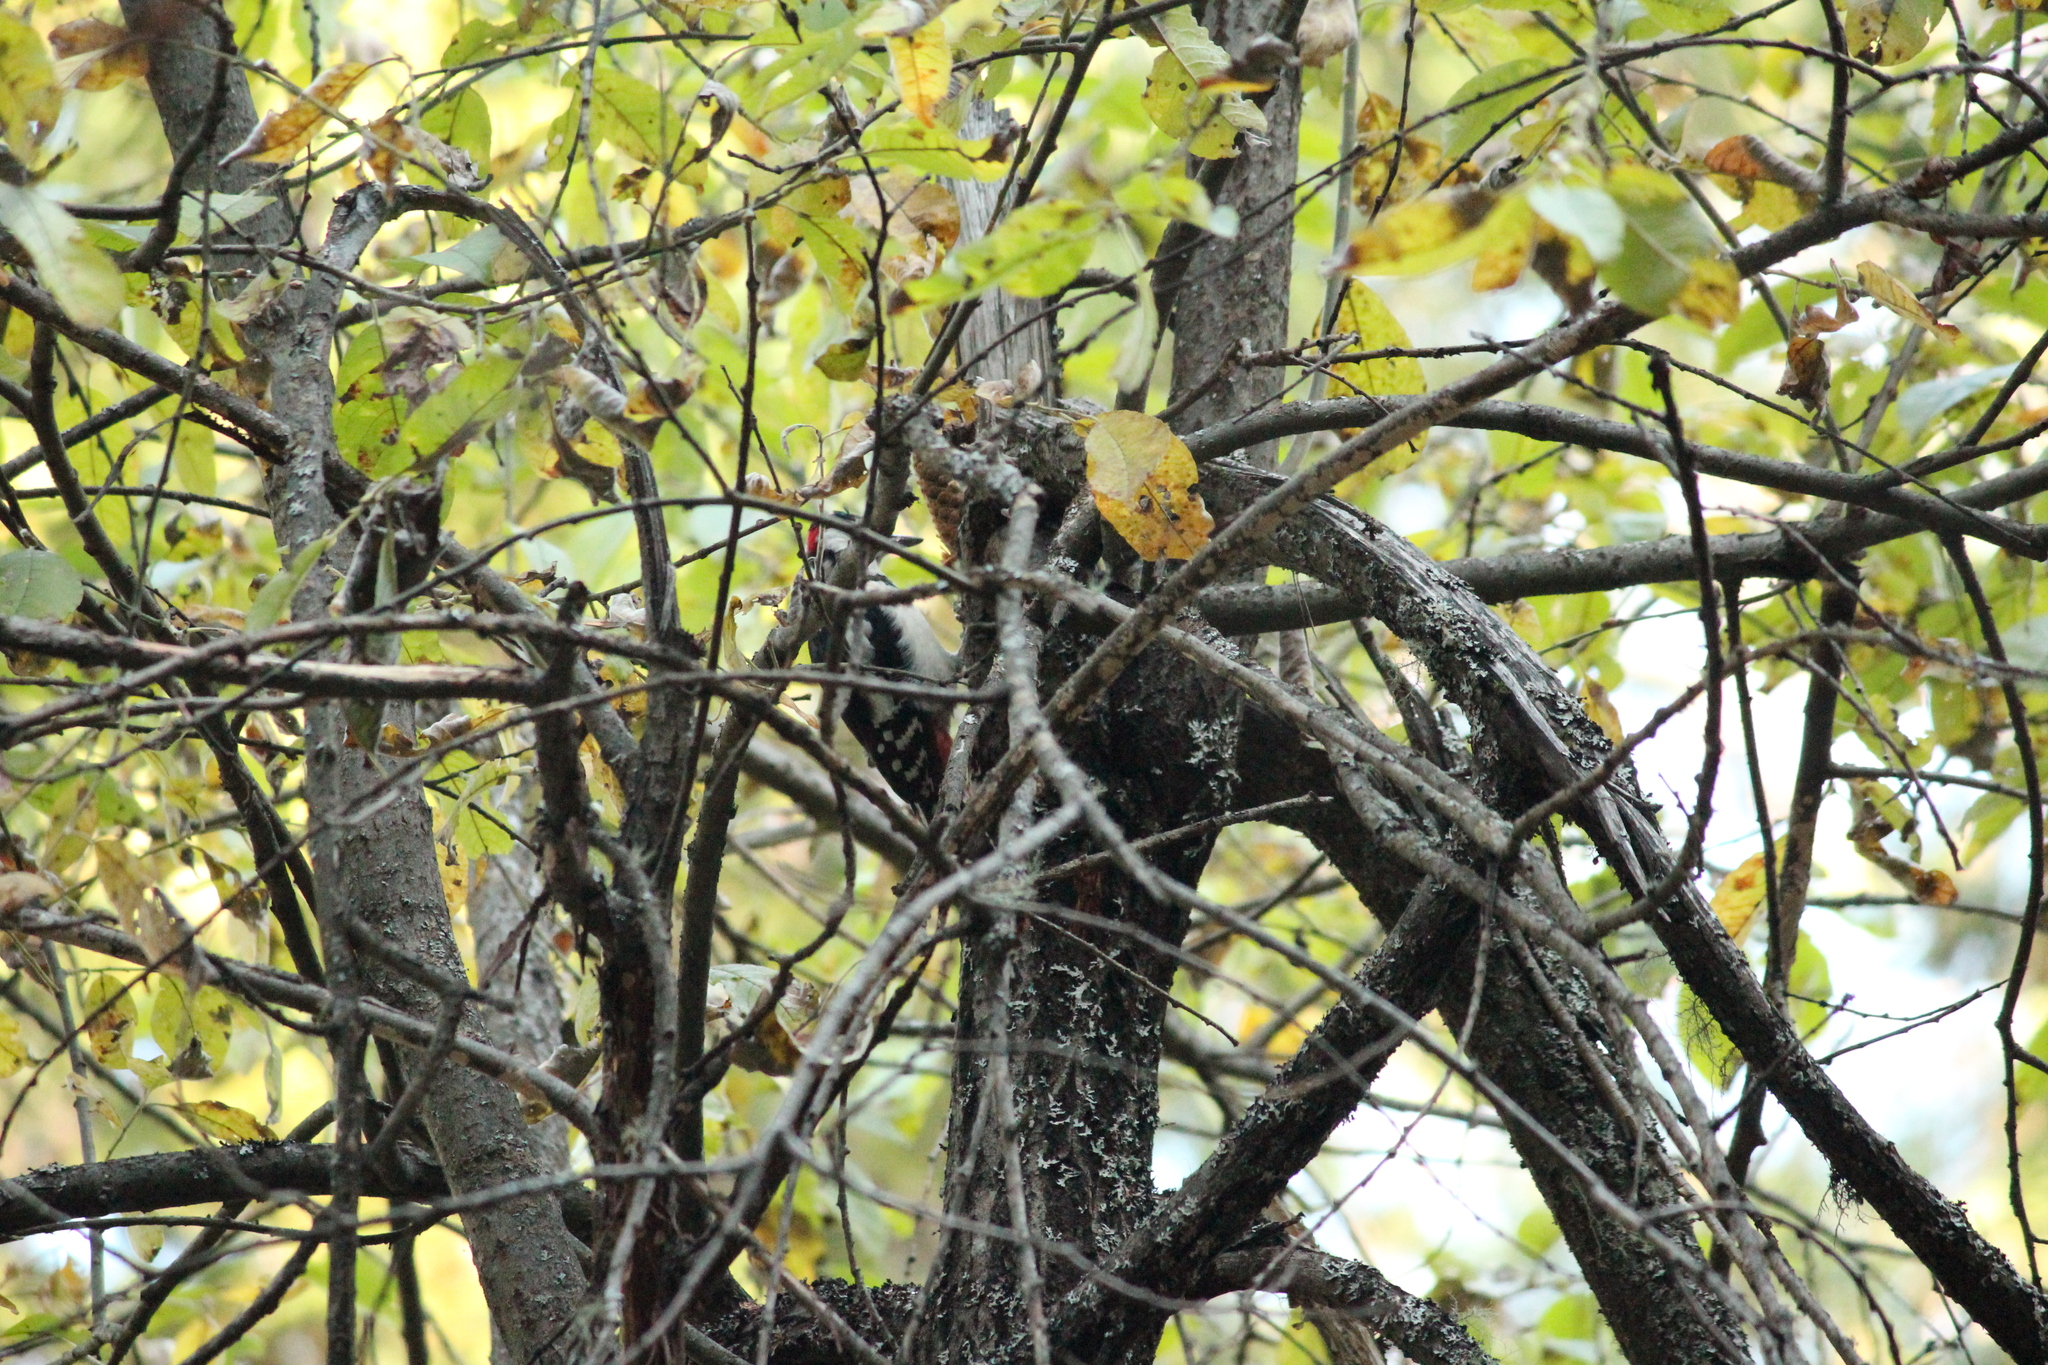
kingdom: Animalia
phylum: Chordata
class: Aves
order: Piciformes
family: Picidae
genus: Dendrocopos
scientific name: Dendrocopos major
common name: Great spotted woodpecker
